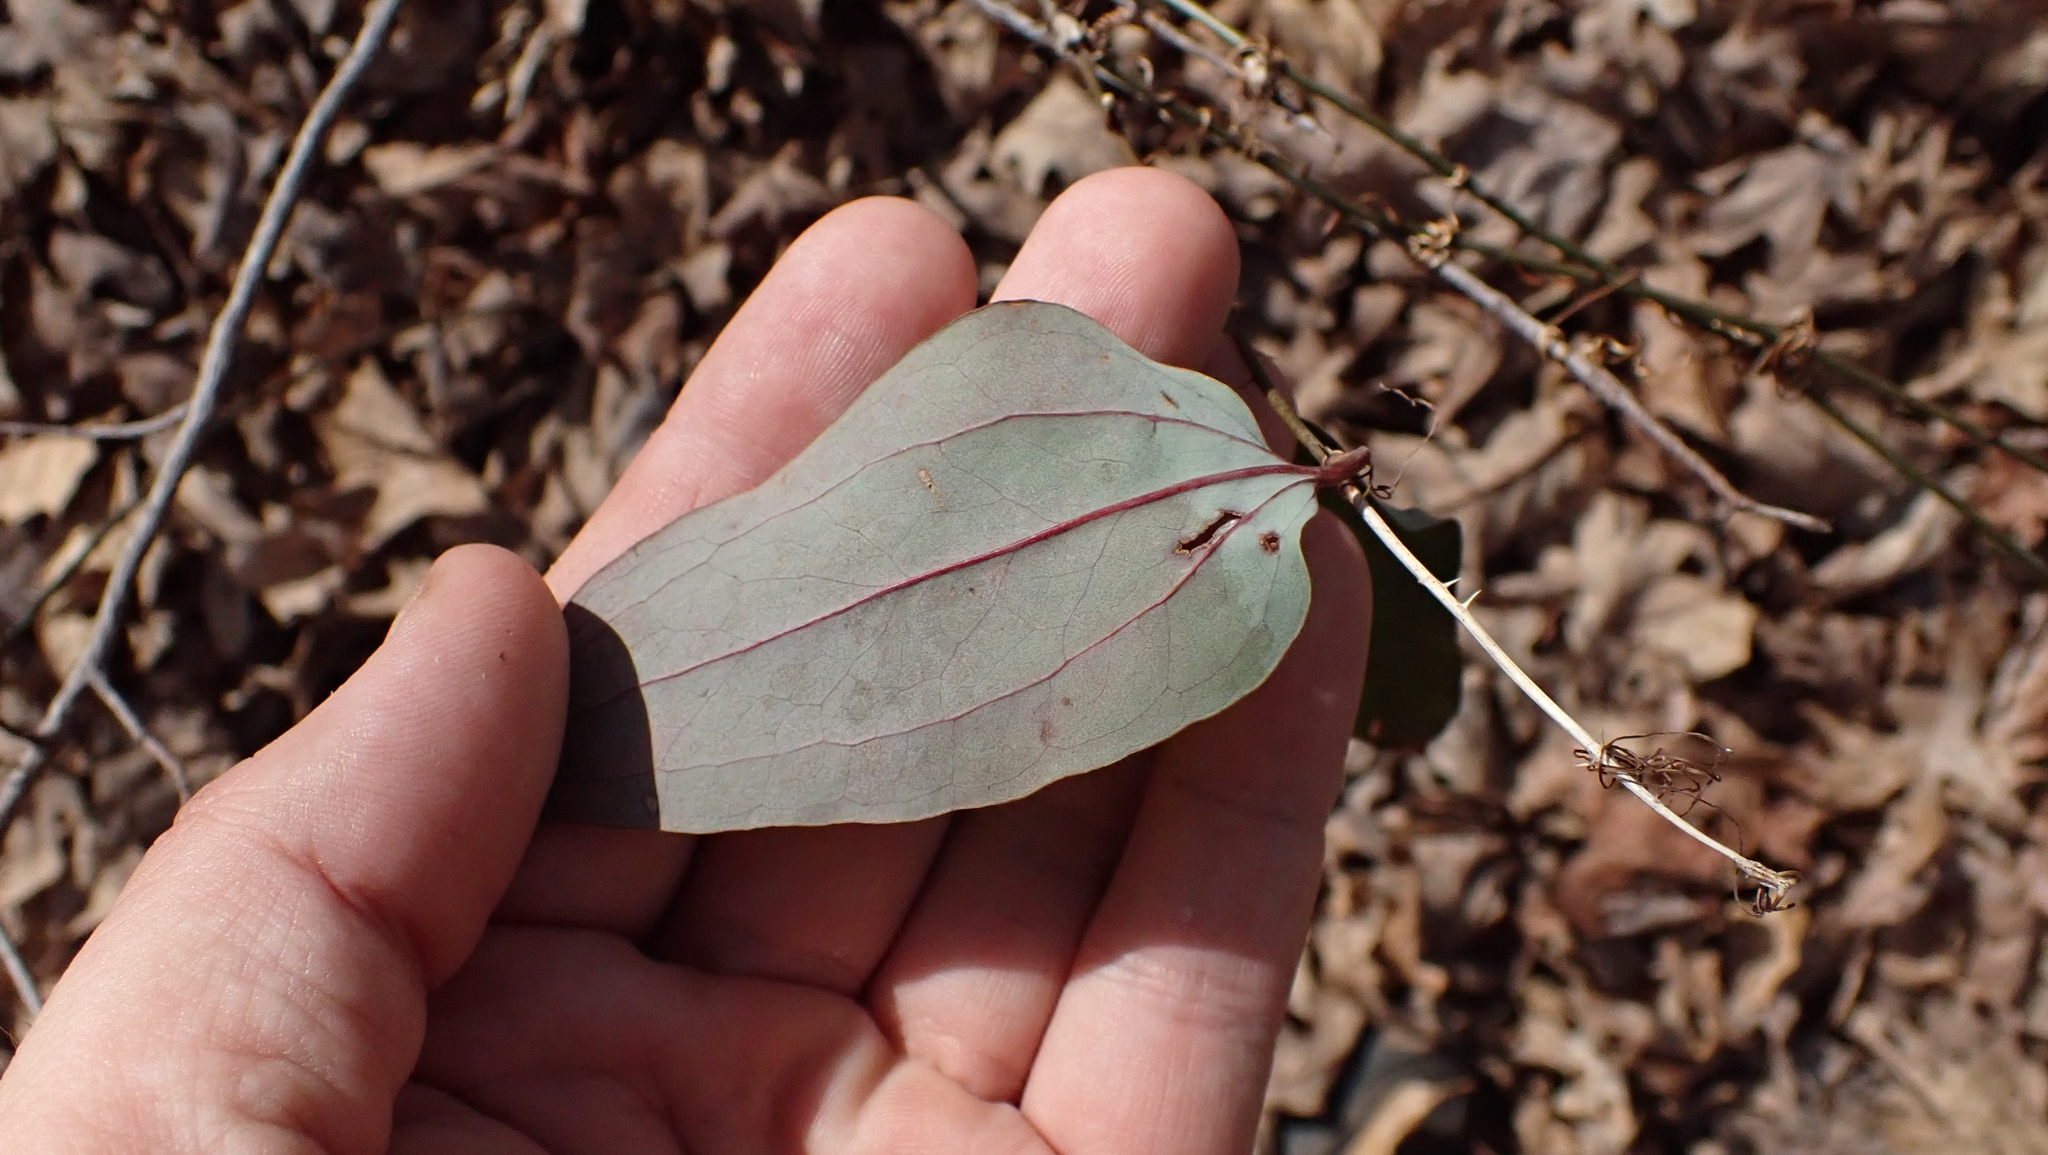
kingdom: Plantae
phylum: Tracheophyta
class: Liliopsida
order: Liliales
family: Smilacaceae
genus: Smilax
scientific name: Smilax glauca
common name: Cat greenbrier
